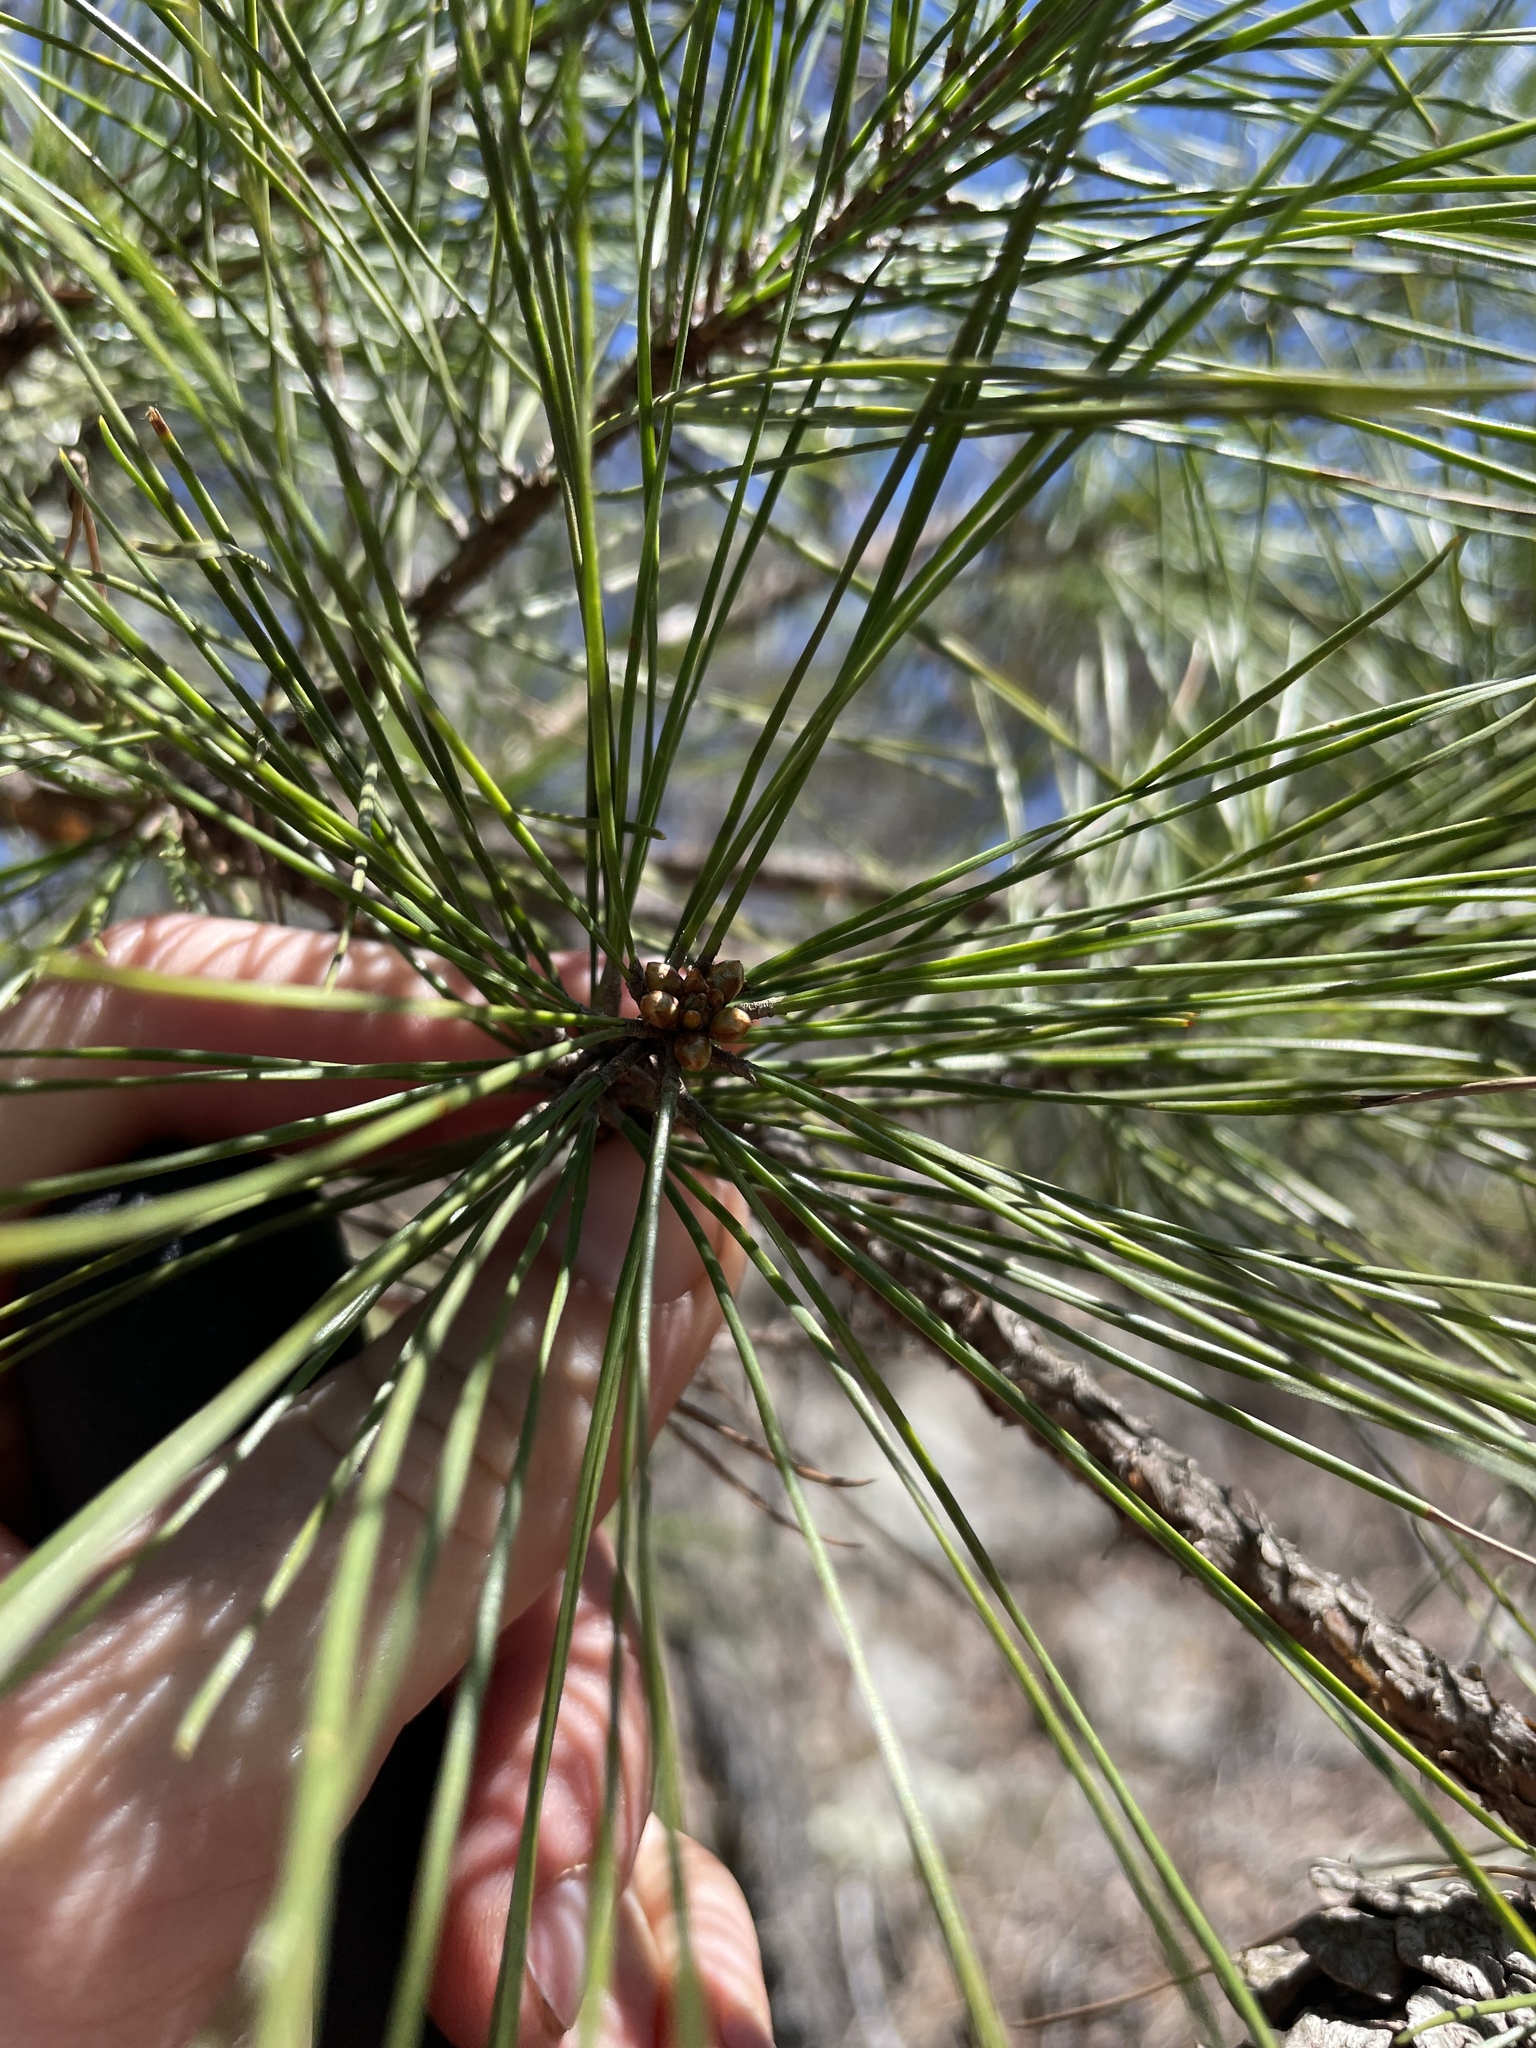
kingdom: Plantae
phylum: Tracheophyta
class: Pinopsida
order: Pinales
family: Pinaceae
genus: Pinus
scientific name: Pinus echinata
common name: Shortleaf pine
